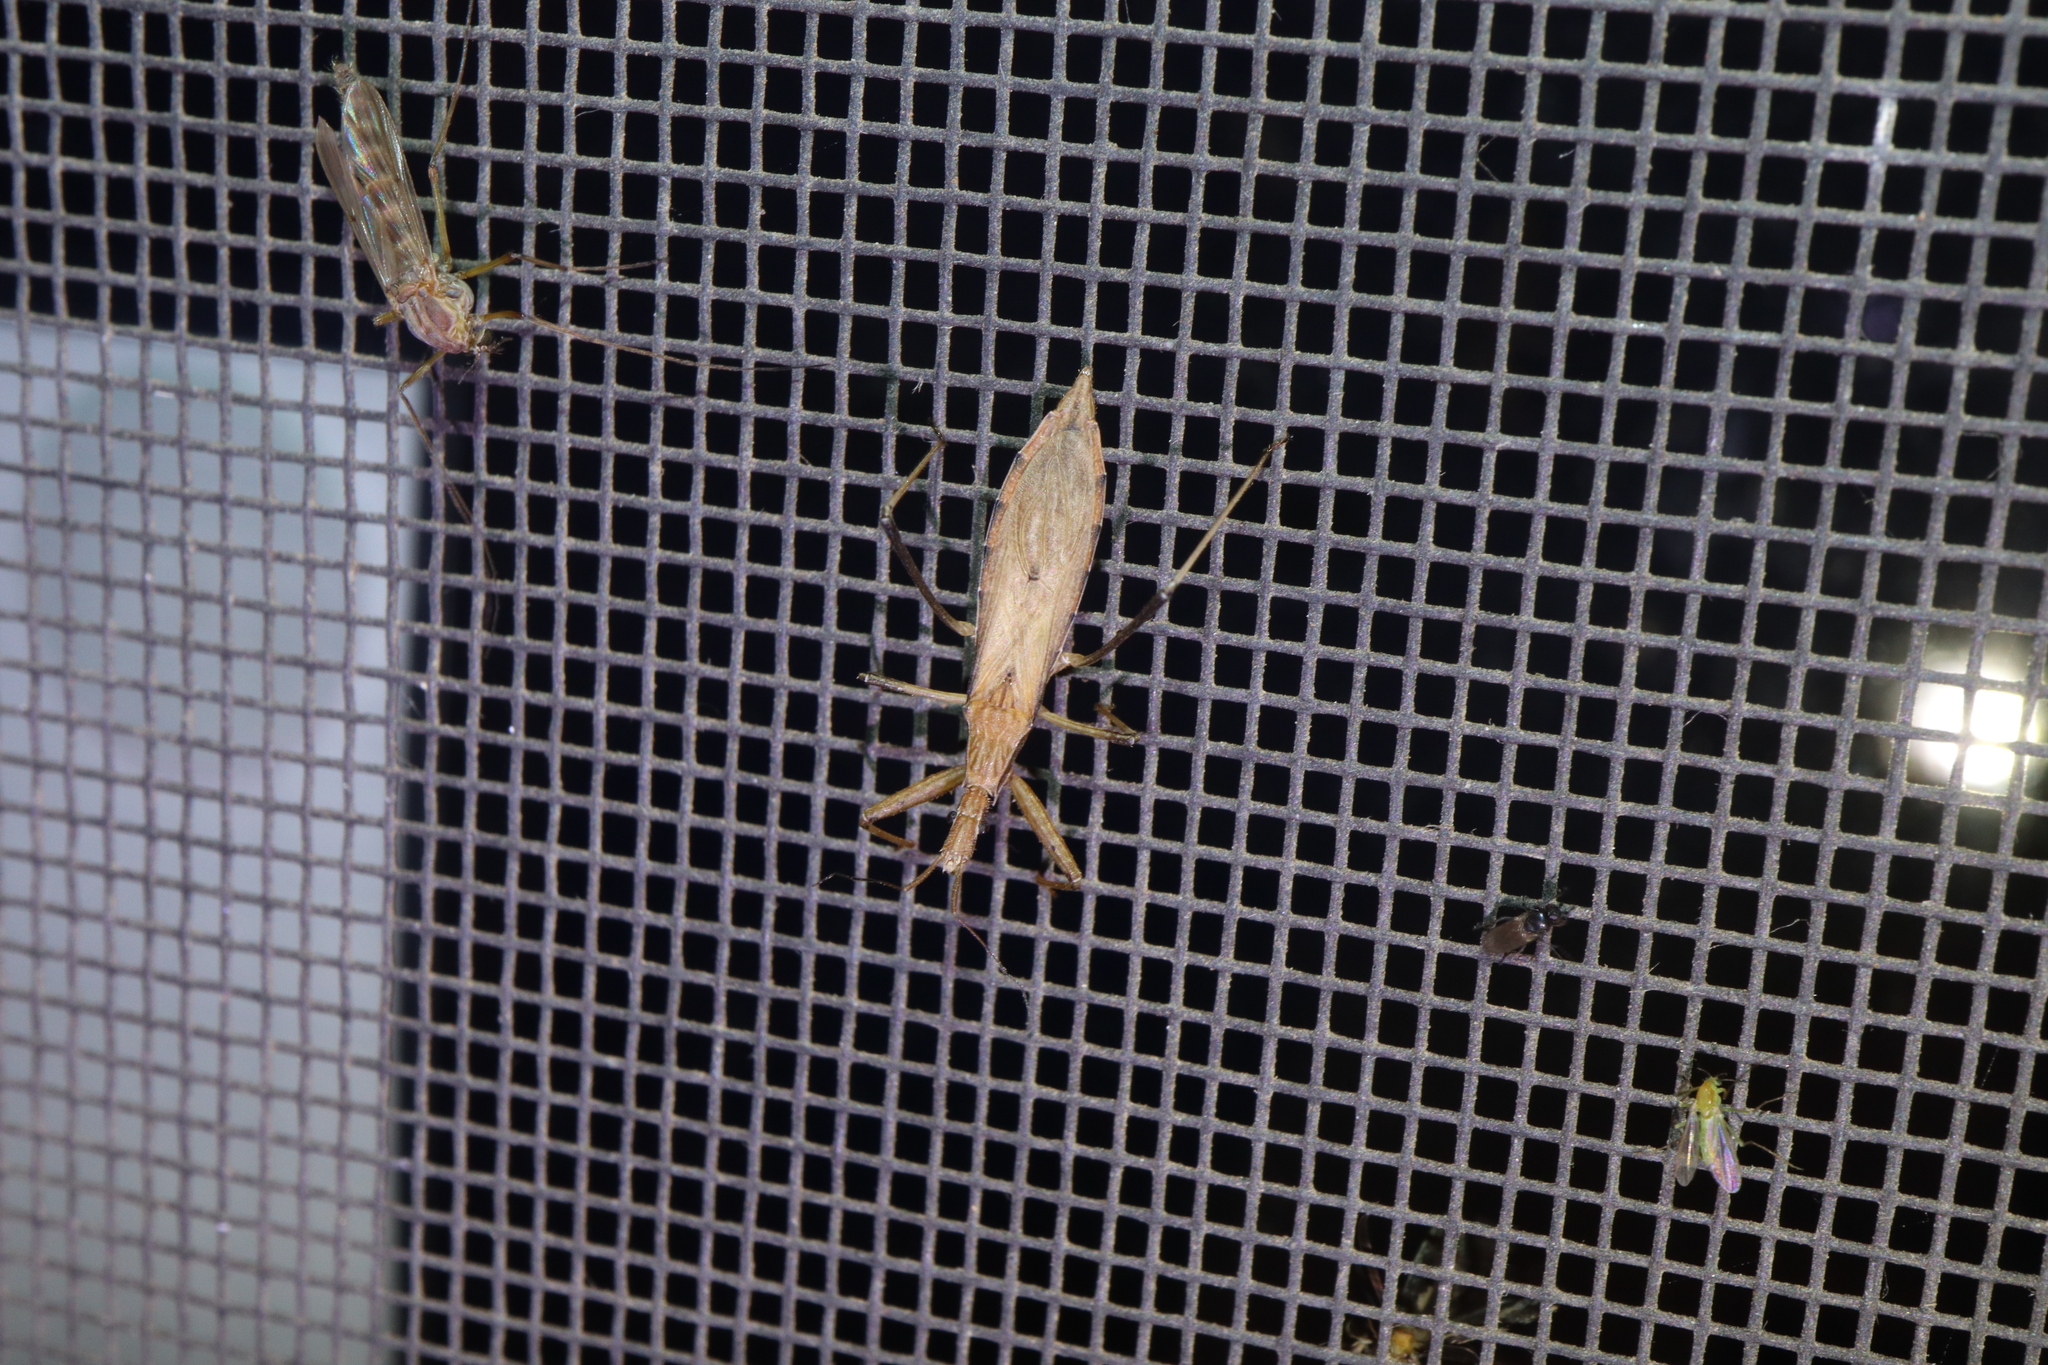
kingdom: Animalia
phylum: Arthropoda
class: Insecta
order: Hemiptera
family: Reduviidae
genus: Sastrapada
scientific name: Sastrapada australica
